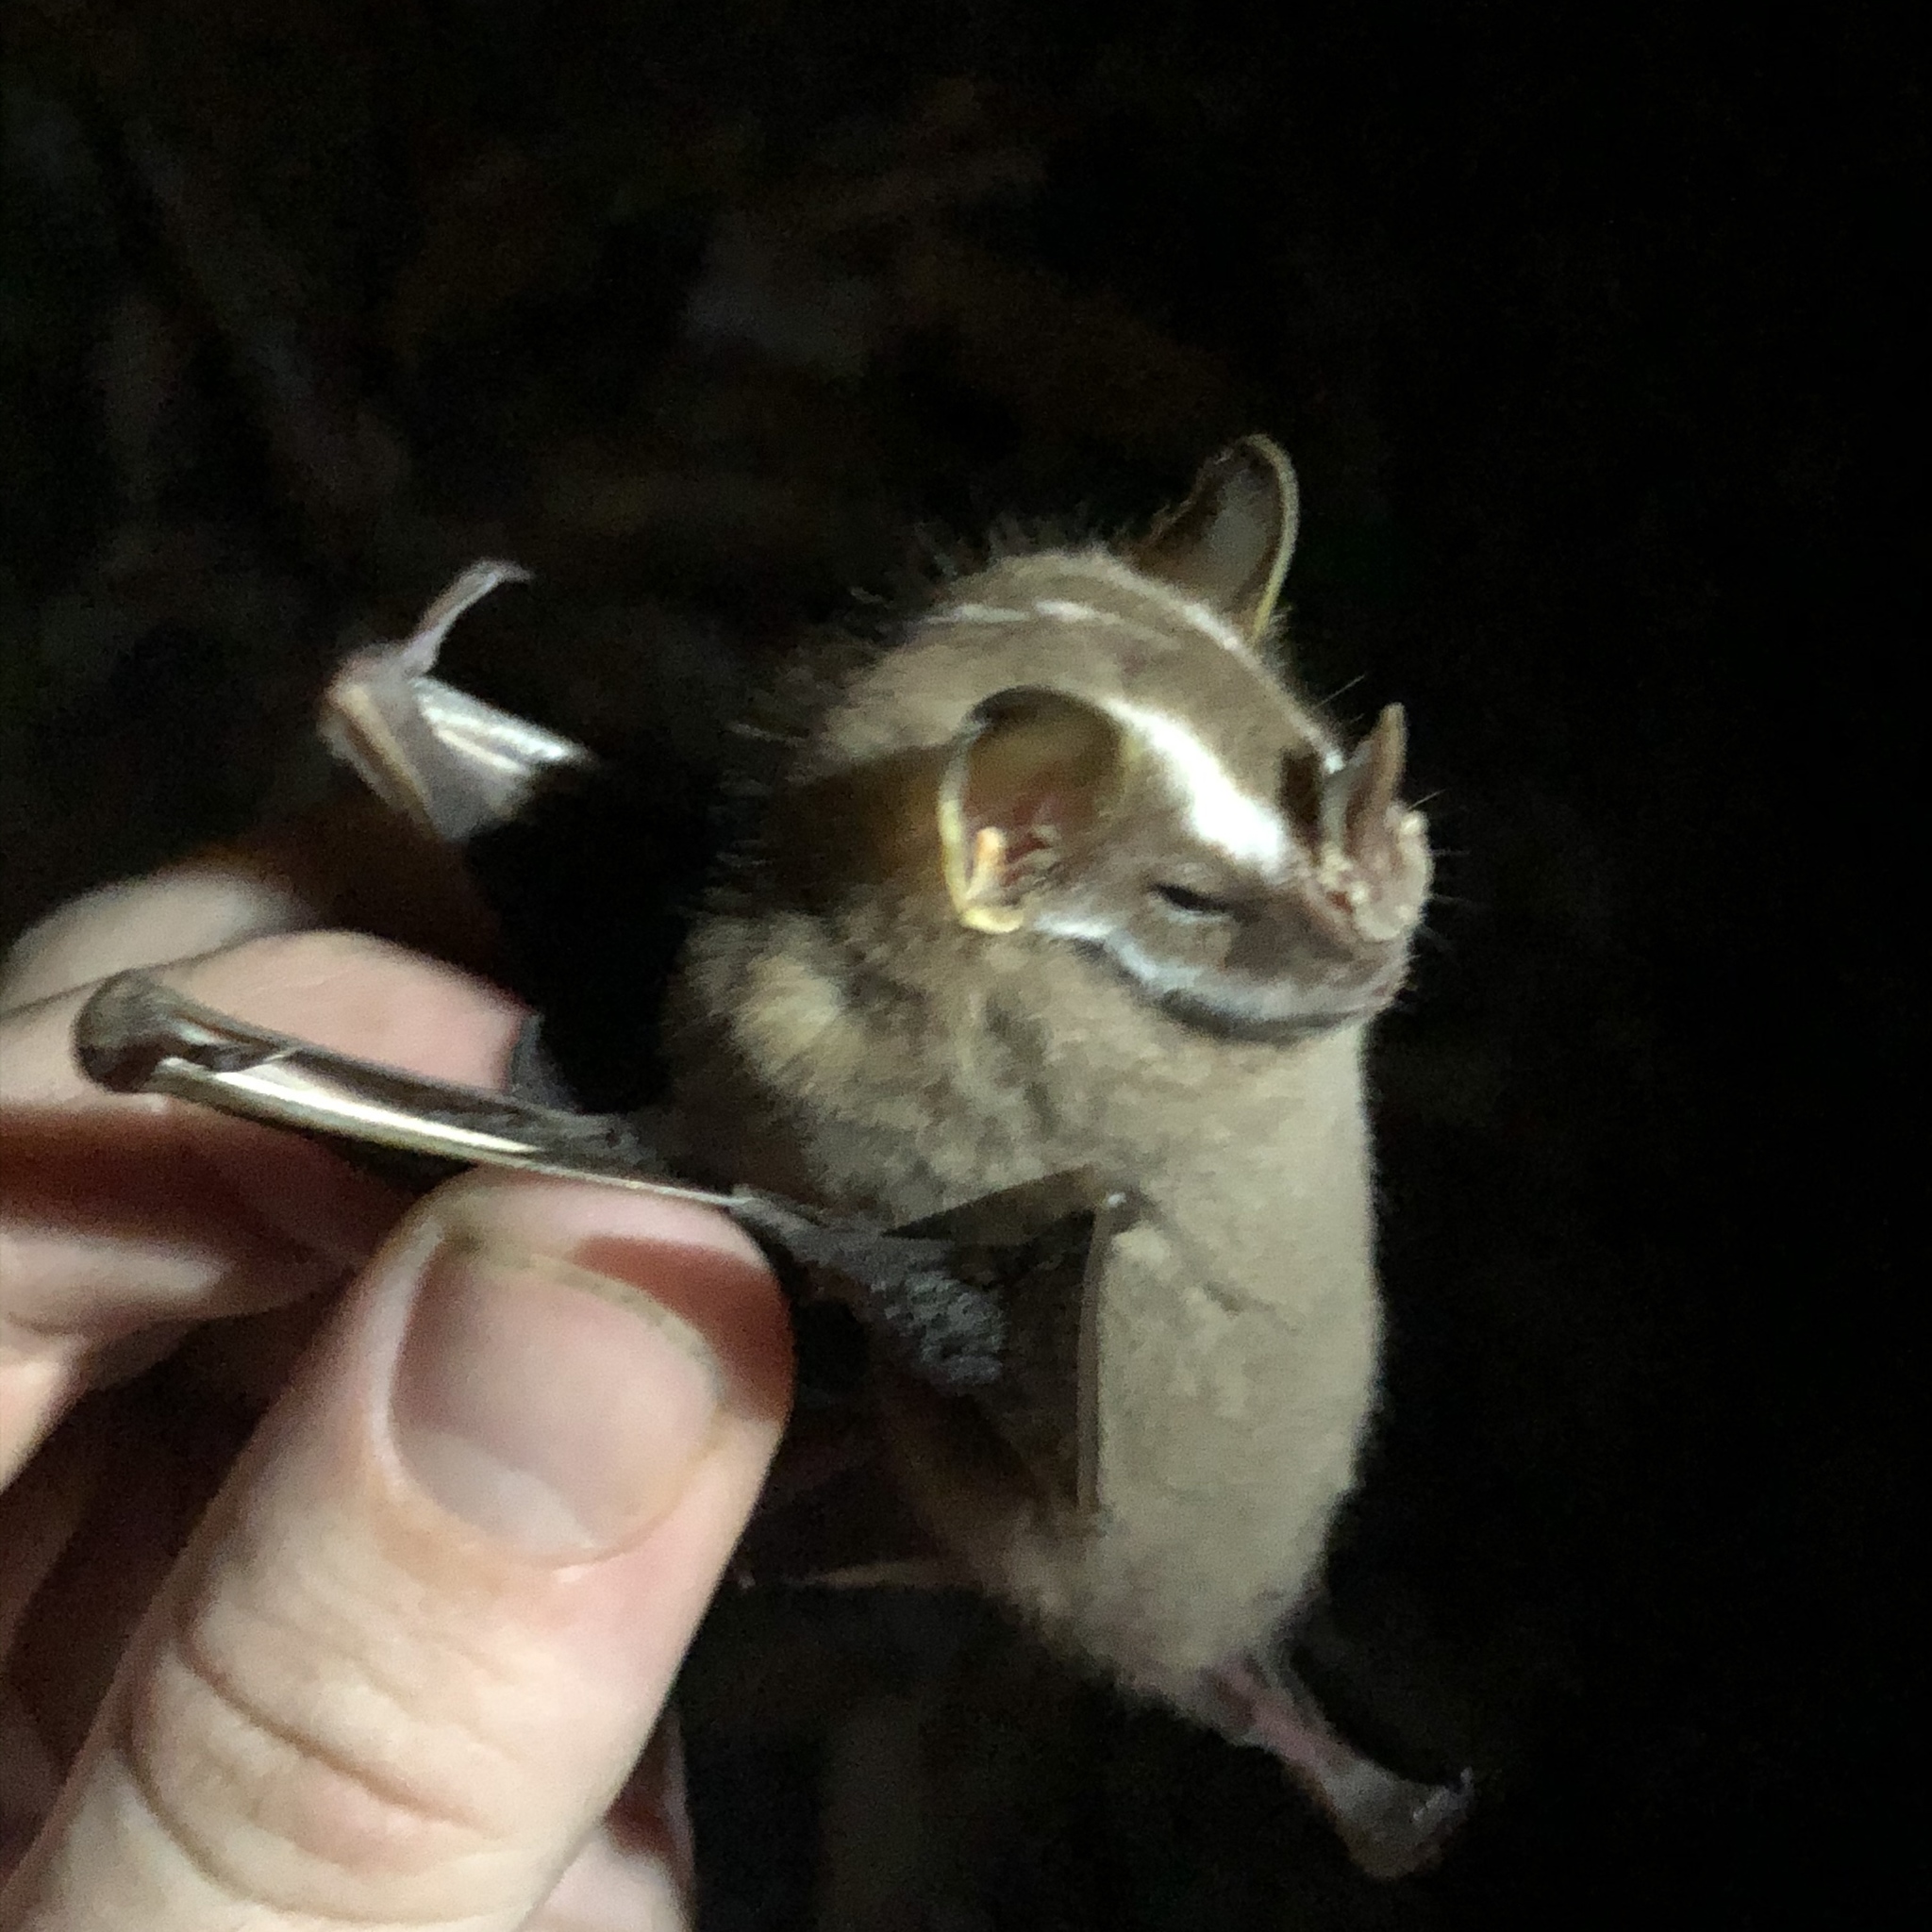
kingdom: Animalia
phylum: Chordata
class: Mammalia
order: Chiroptera
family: Phyllostomidae
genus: Platyrrhinus
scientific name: Platyrrhinus helleri
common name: Heller's broad-nosed bat
